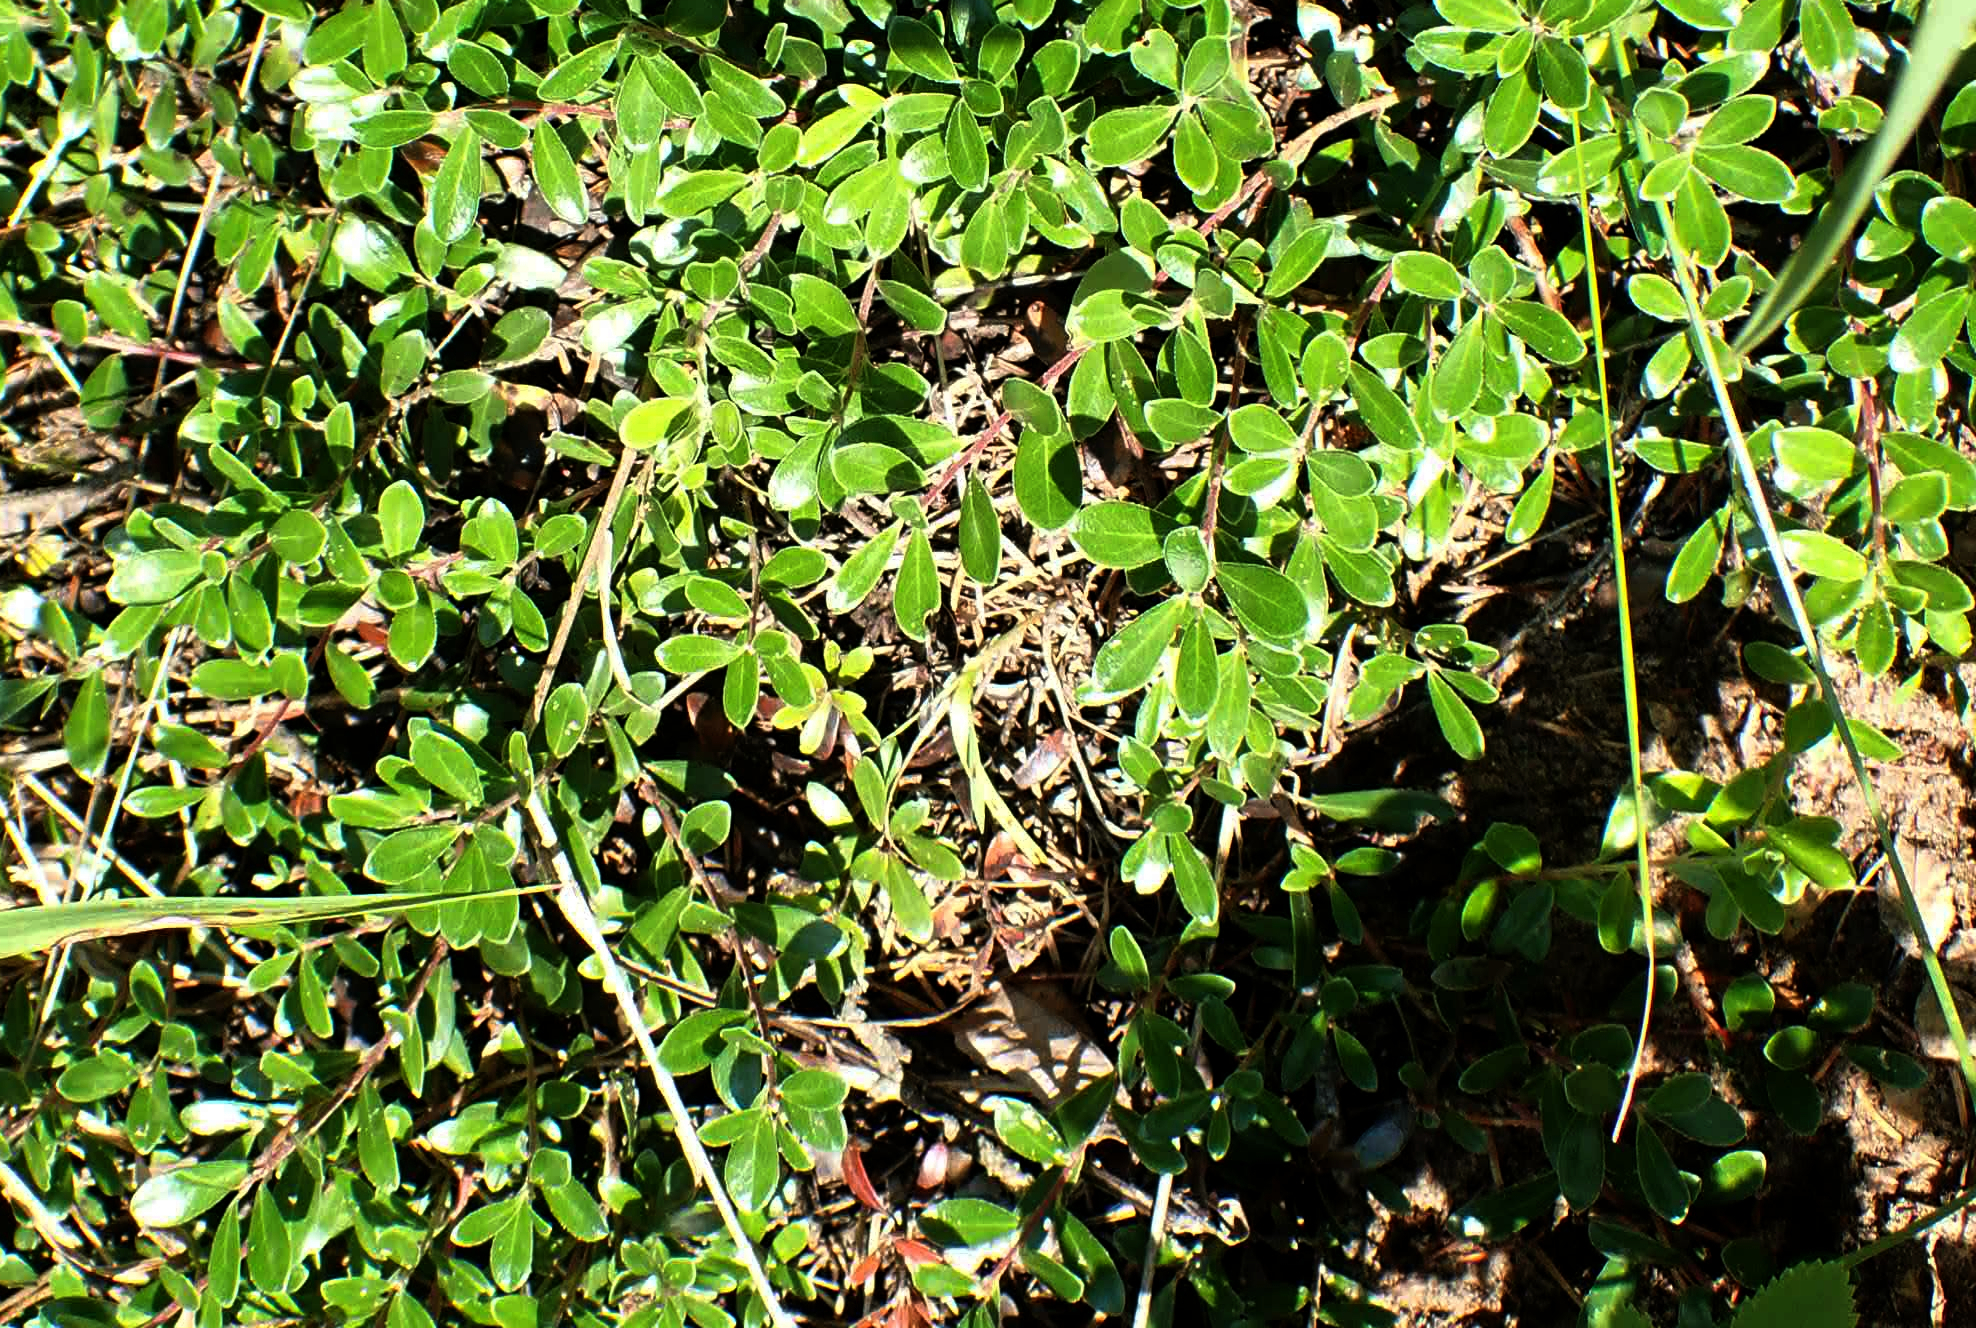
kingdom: Plantae
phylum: Tracheophyta
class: Magnoliopsida
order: Ericales
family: Ericaceae
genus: Arctostaphylos
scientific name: Arctostaphylos uva-ursi
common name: Bearberry
